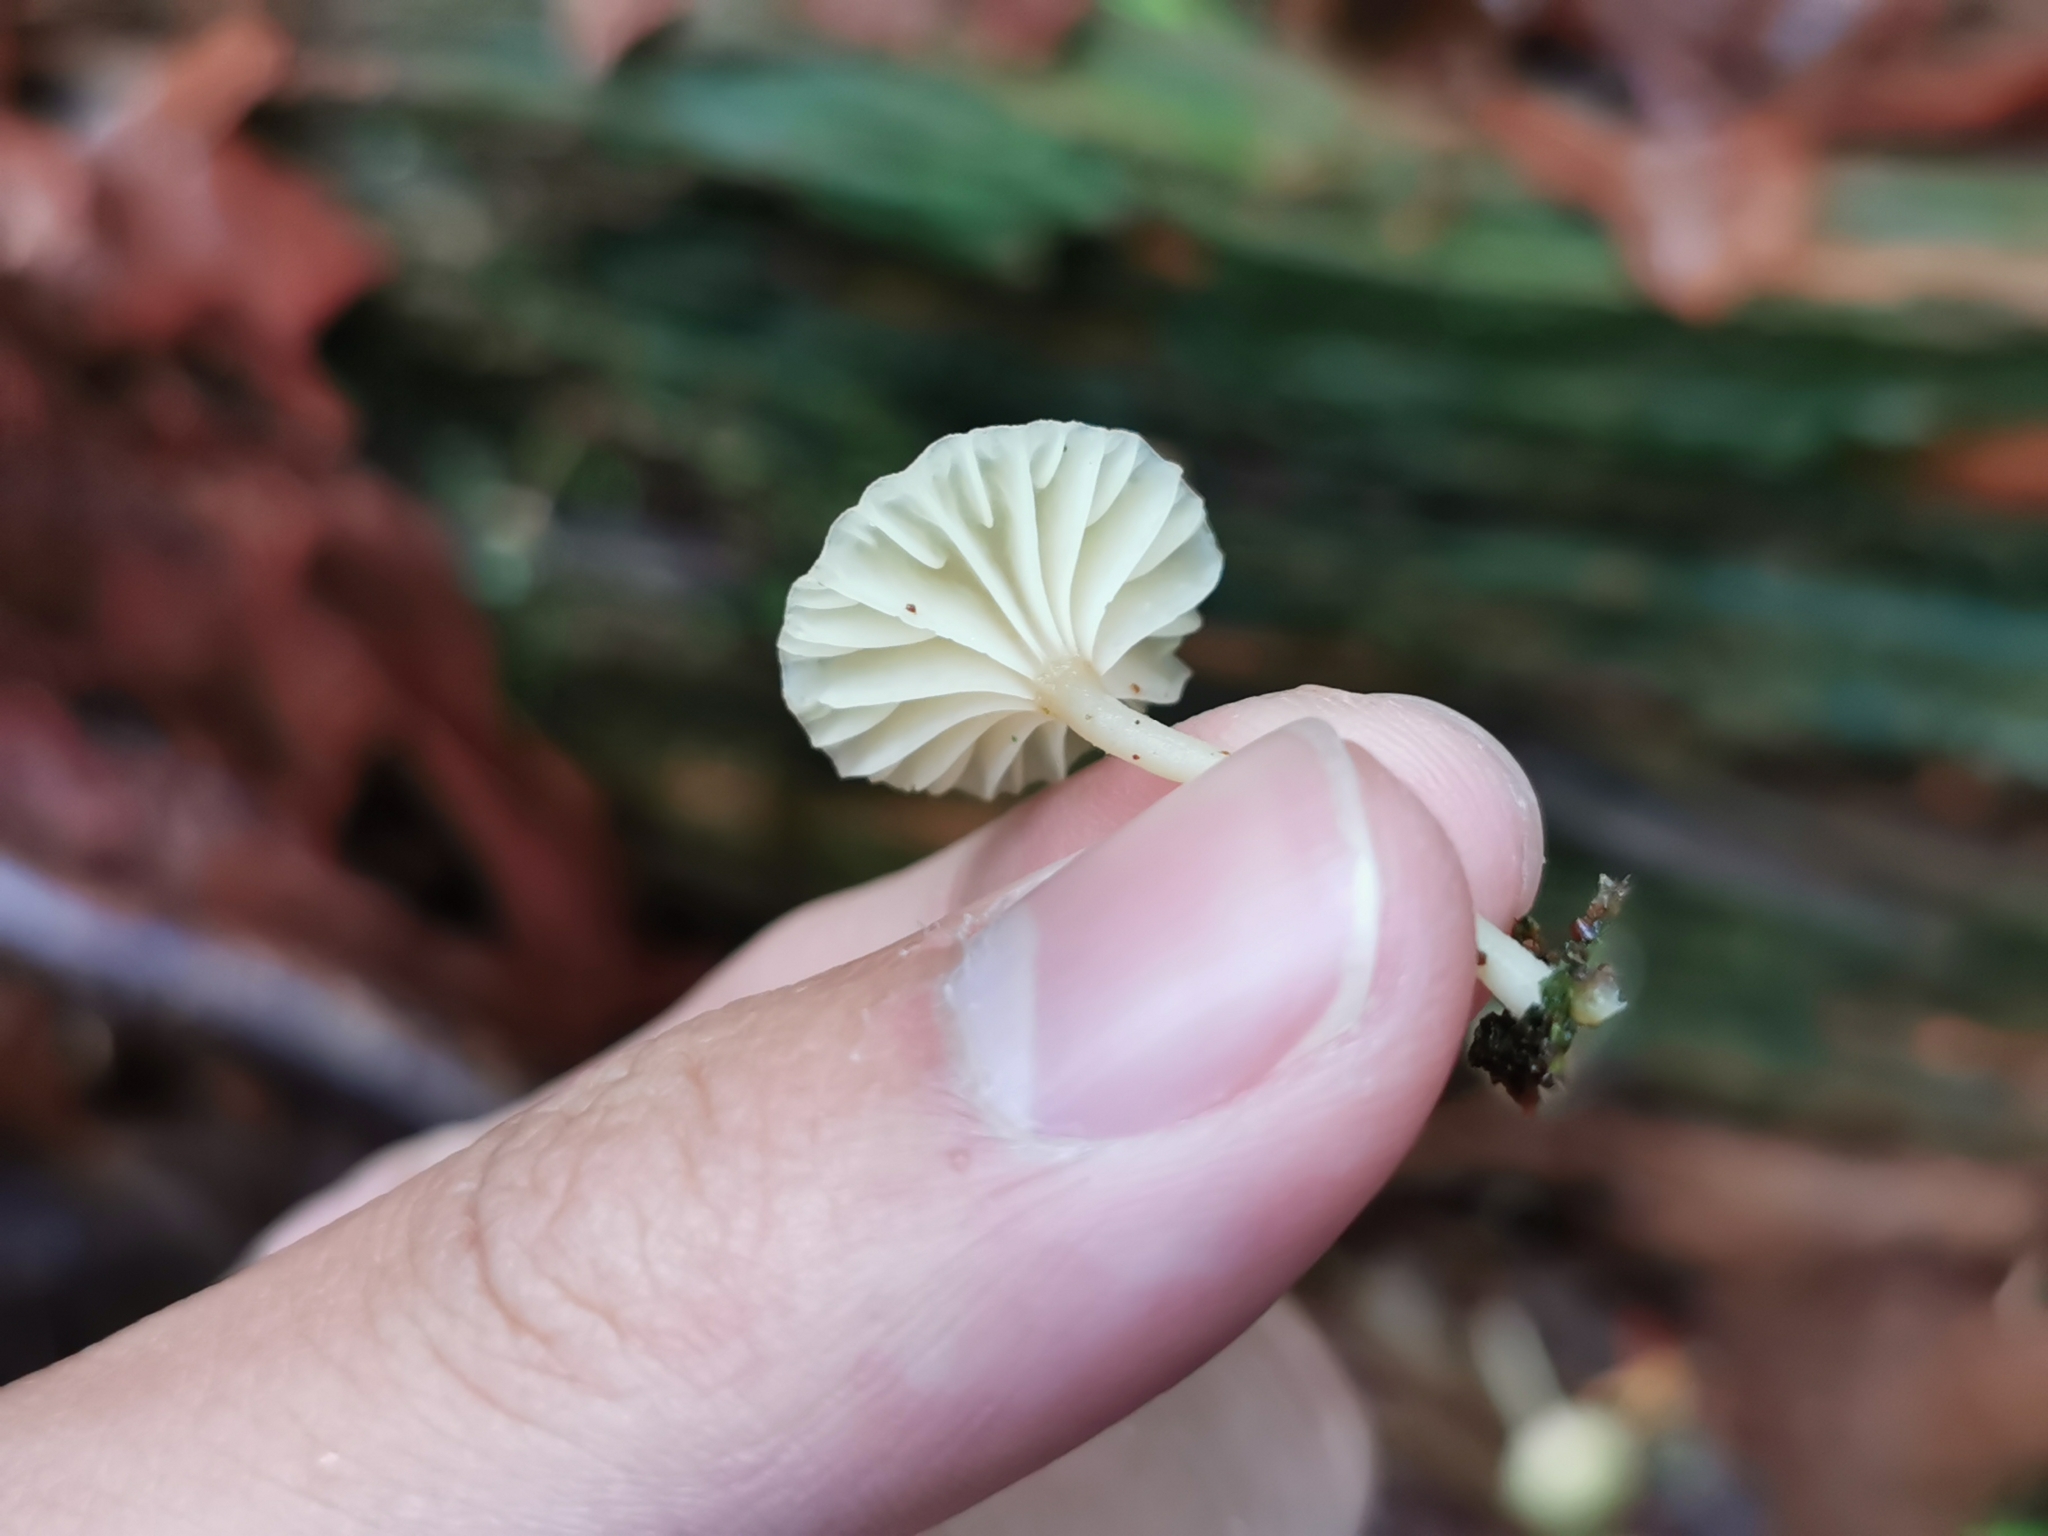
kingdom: Fungi
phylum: Basidiomycota
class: Agaricomycetes
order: Agaricales
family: Hygrophoraceae
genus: Lichenomphalia
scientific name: Lichenomphalia
